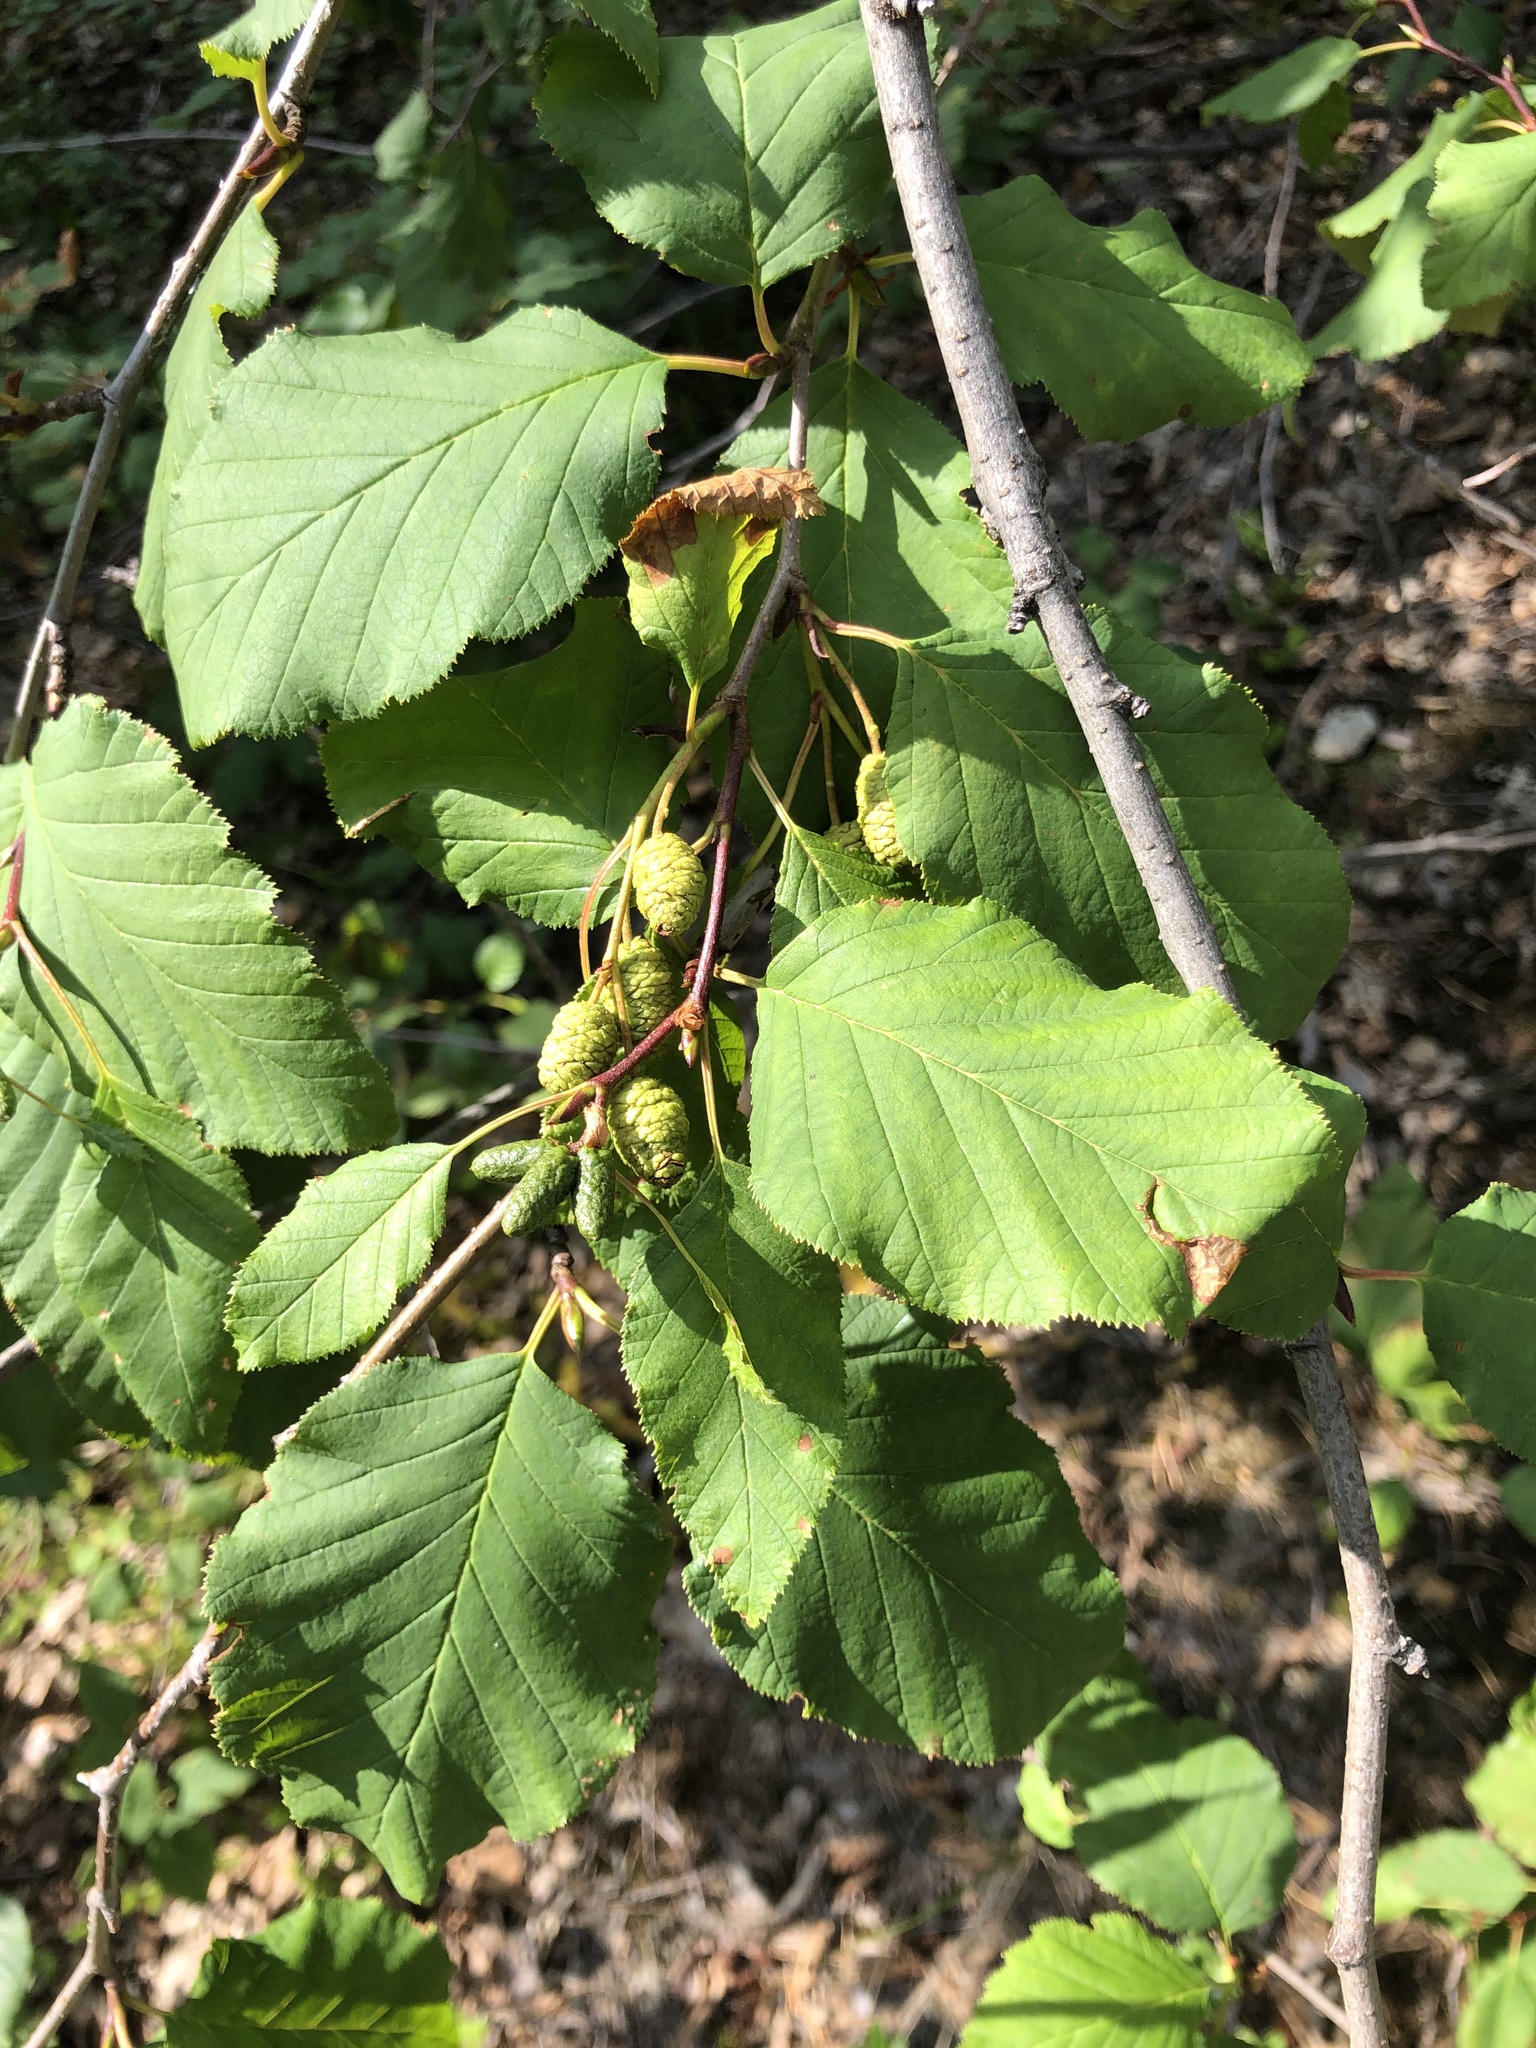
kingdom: Plantae
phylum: Tracheophyta
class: Magnoliopsida
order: Fagales
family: Betulaceae
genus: Alnus
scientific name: Alnus alnobetula
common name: Green alder
